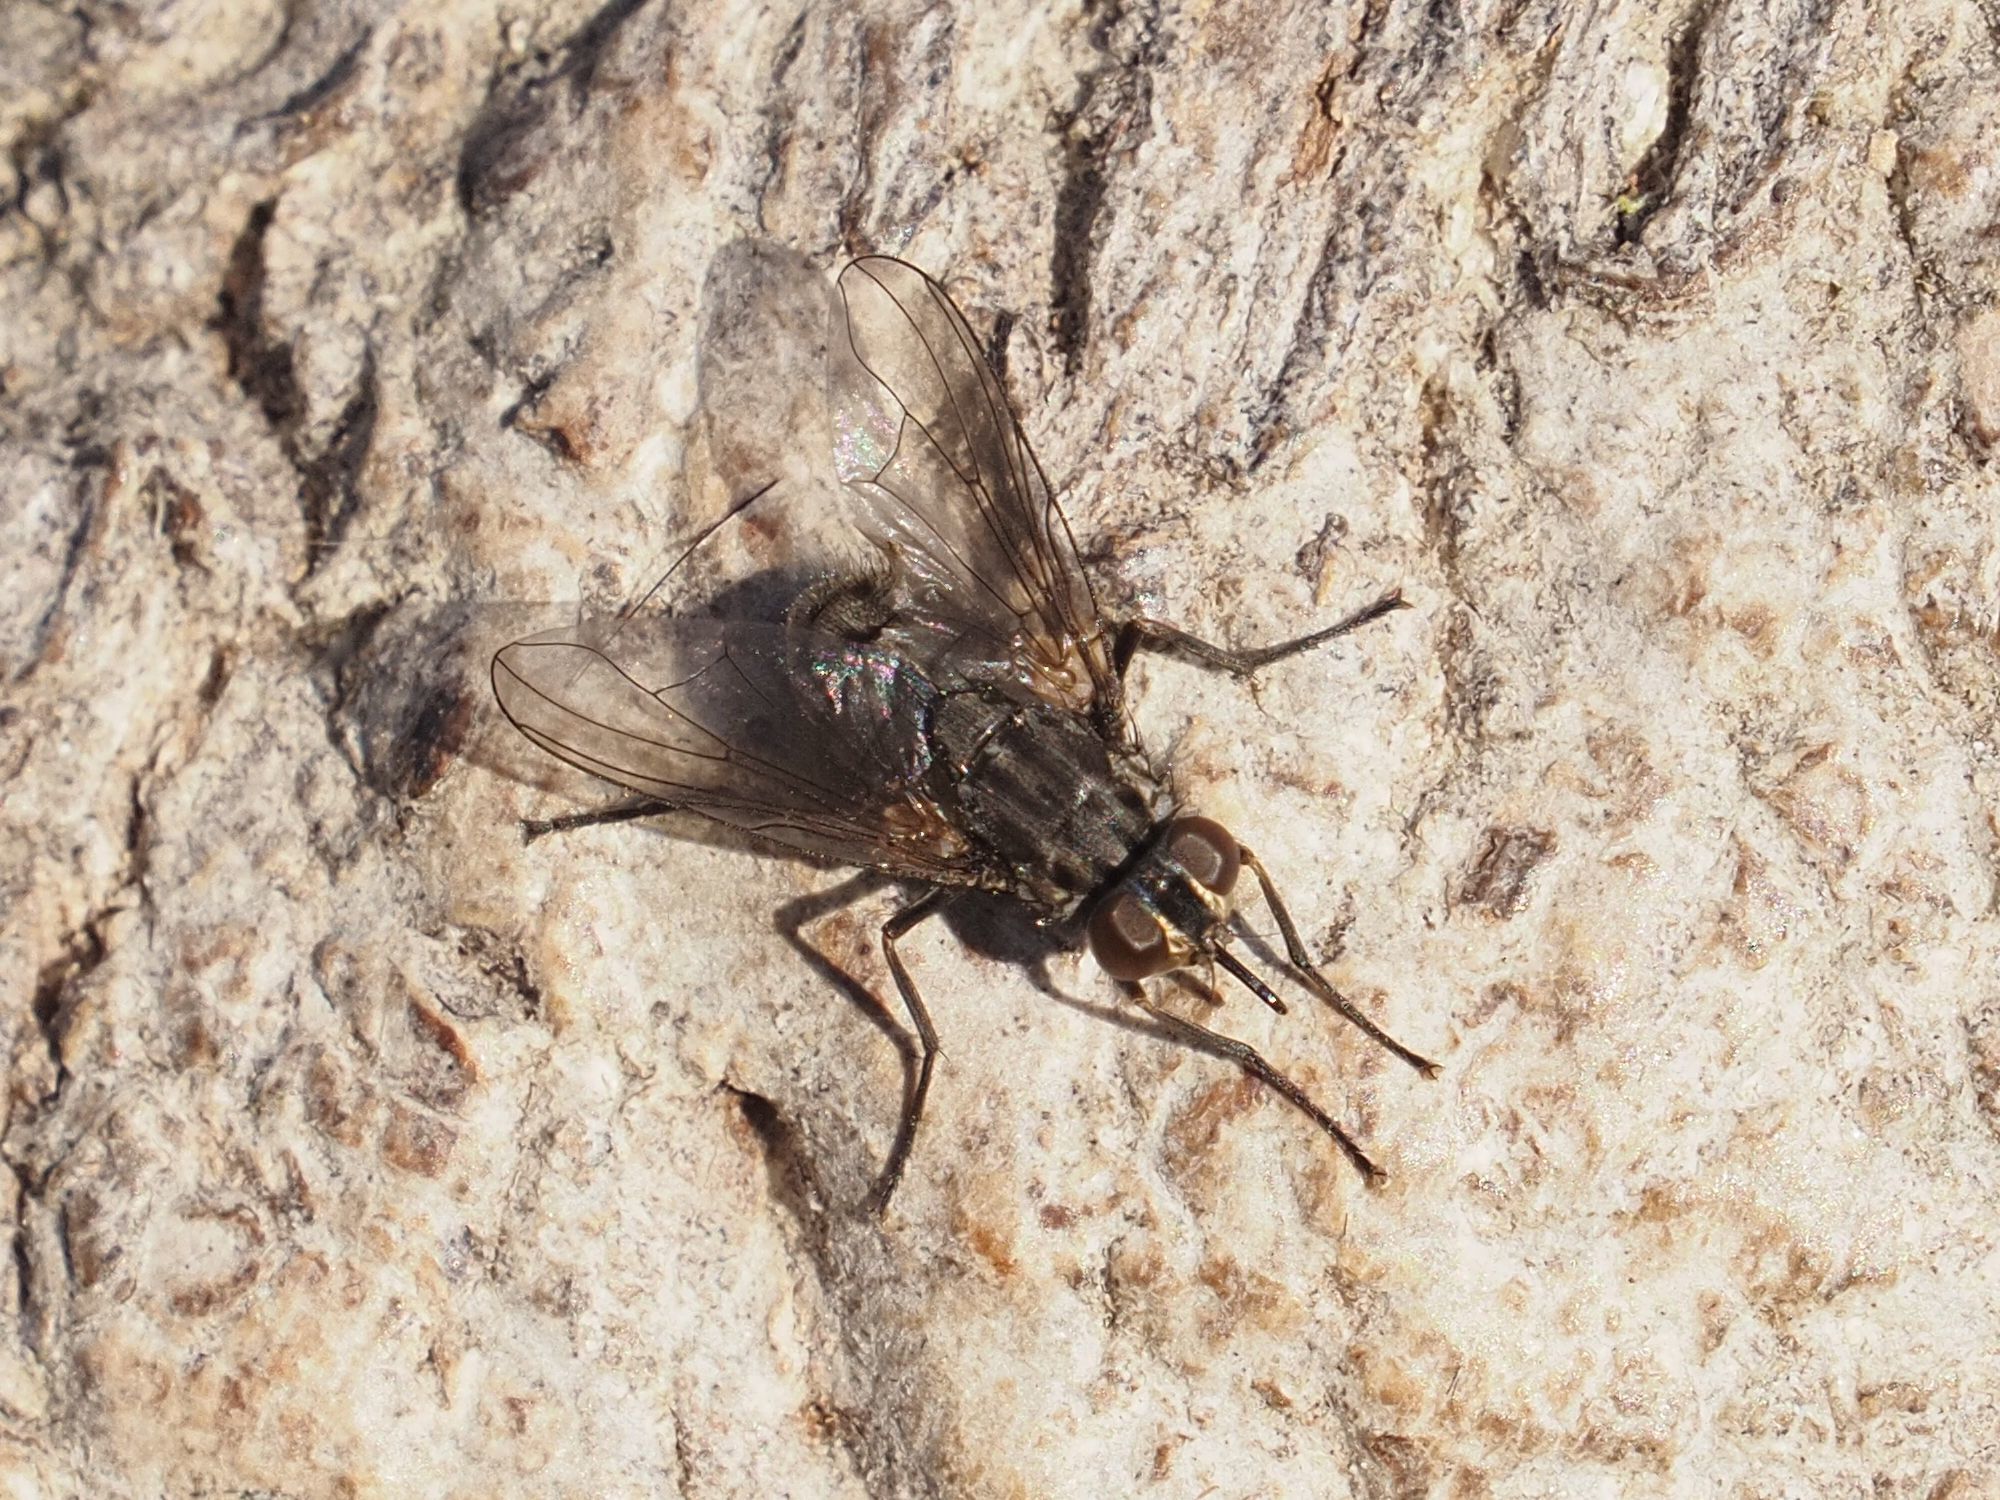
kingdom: Animalia
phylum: Arthropoda
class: Insecta
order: Diptera
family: Muscidae
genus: Stomoxys
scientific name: Stomoxys calcitrans
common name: Stable fly
